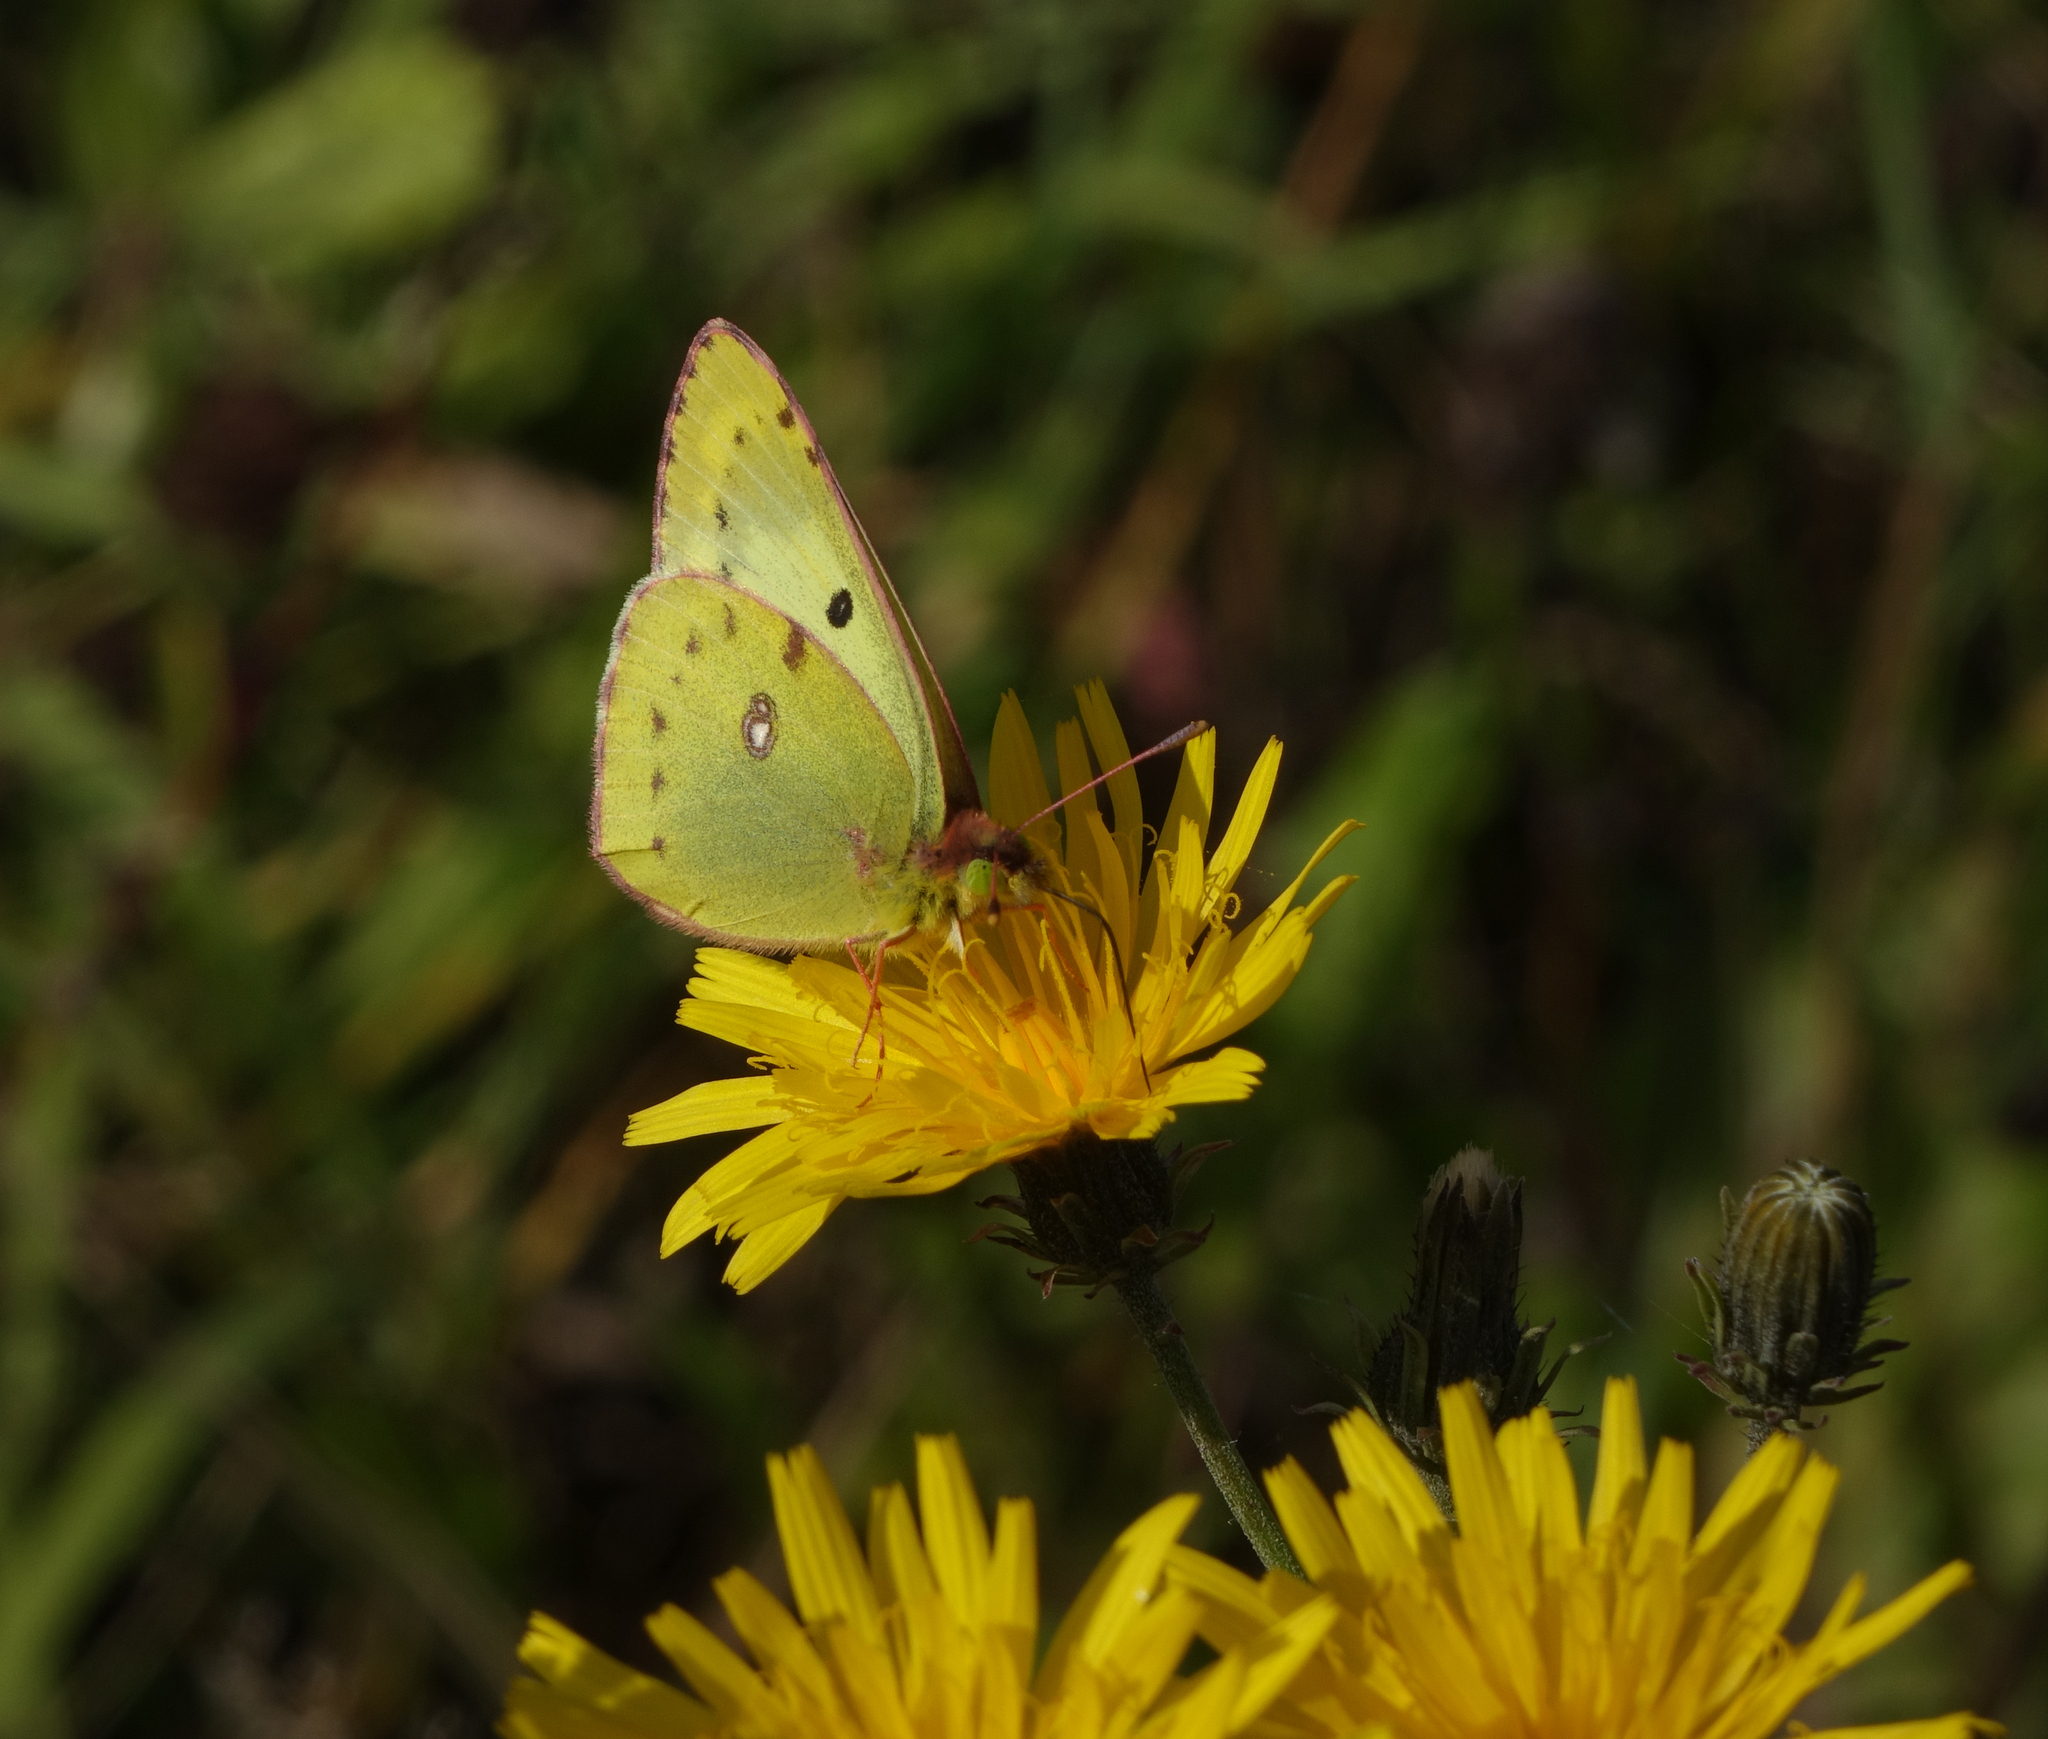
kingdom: Plantae
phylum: Tracheophyta
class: Magnoliopsida
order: Asterales
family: Asteraceae
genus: Picris
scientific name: Picris hieracioides
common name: Hawkweed oxtongue
